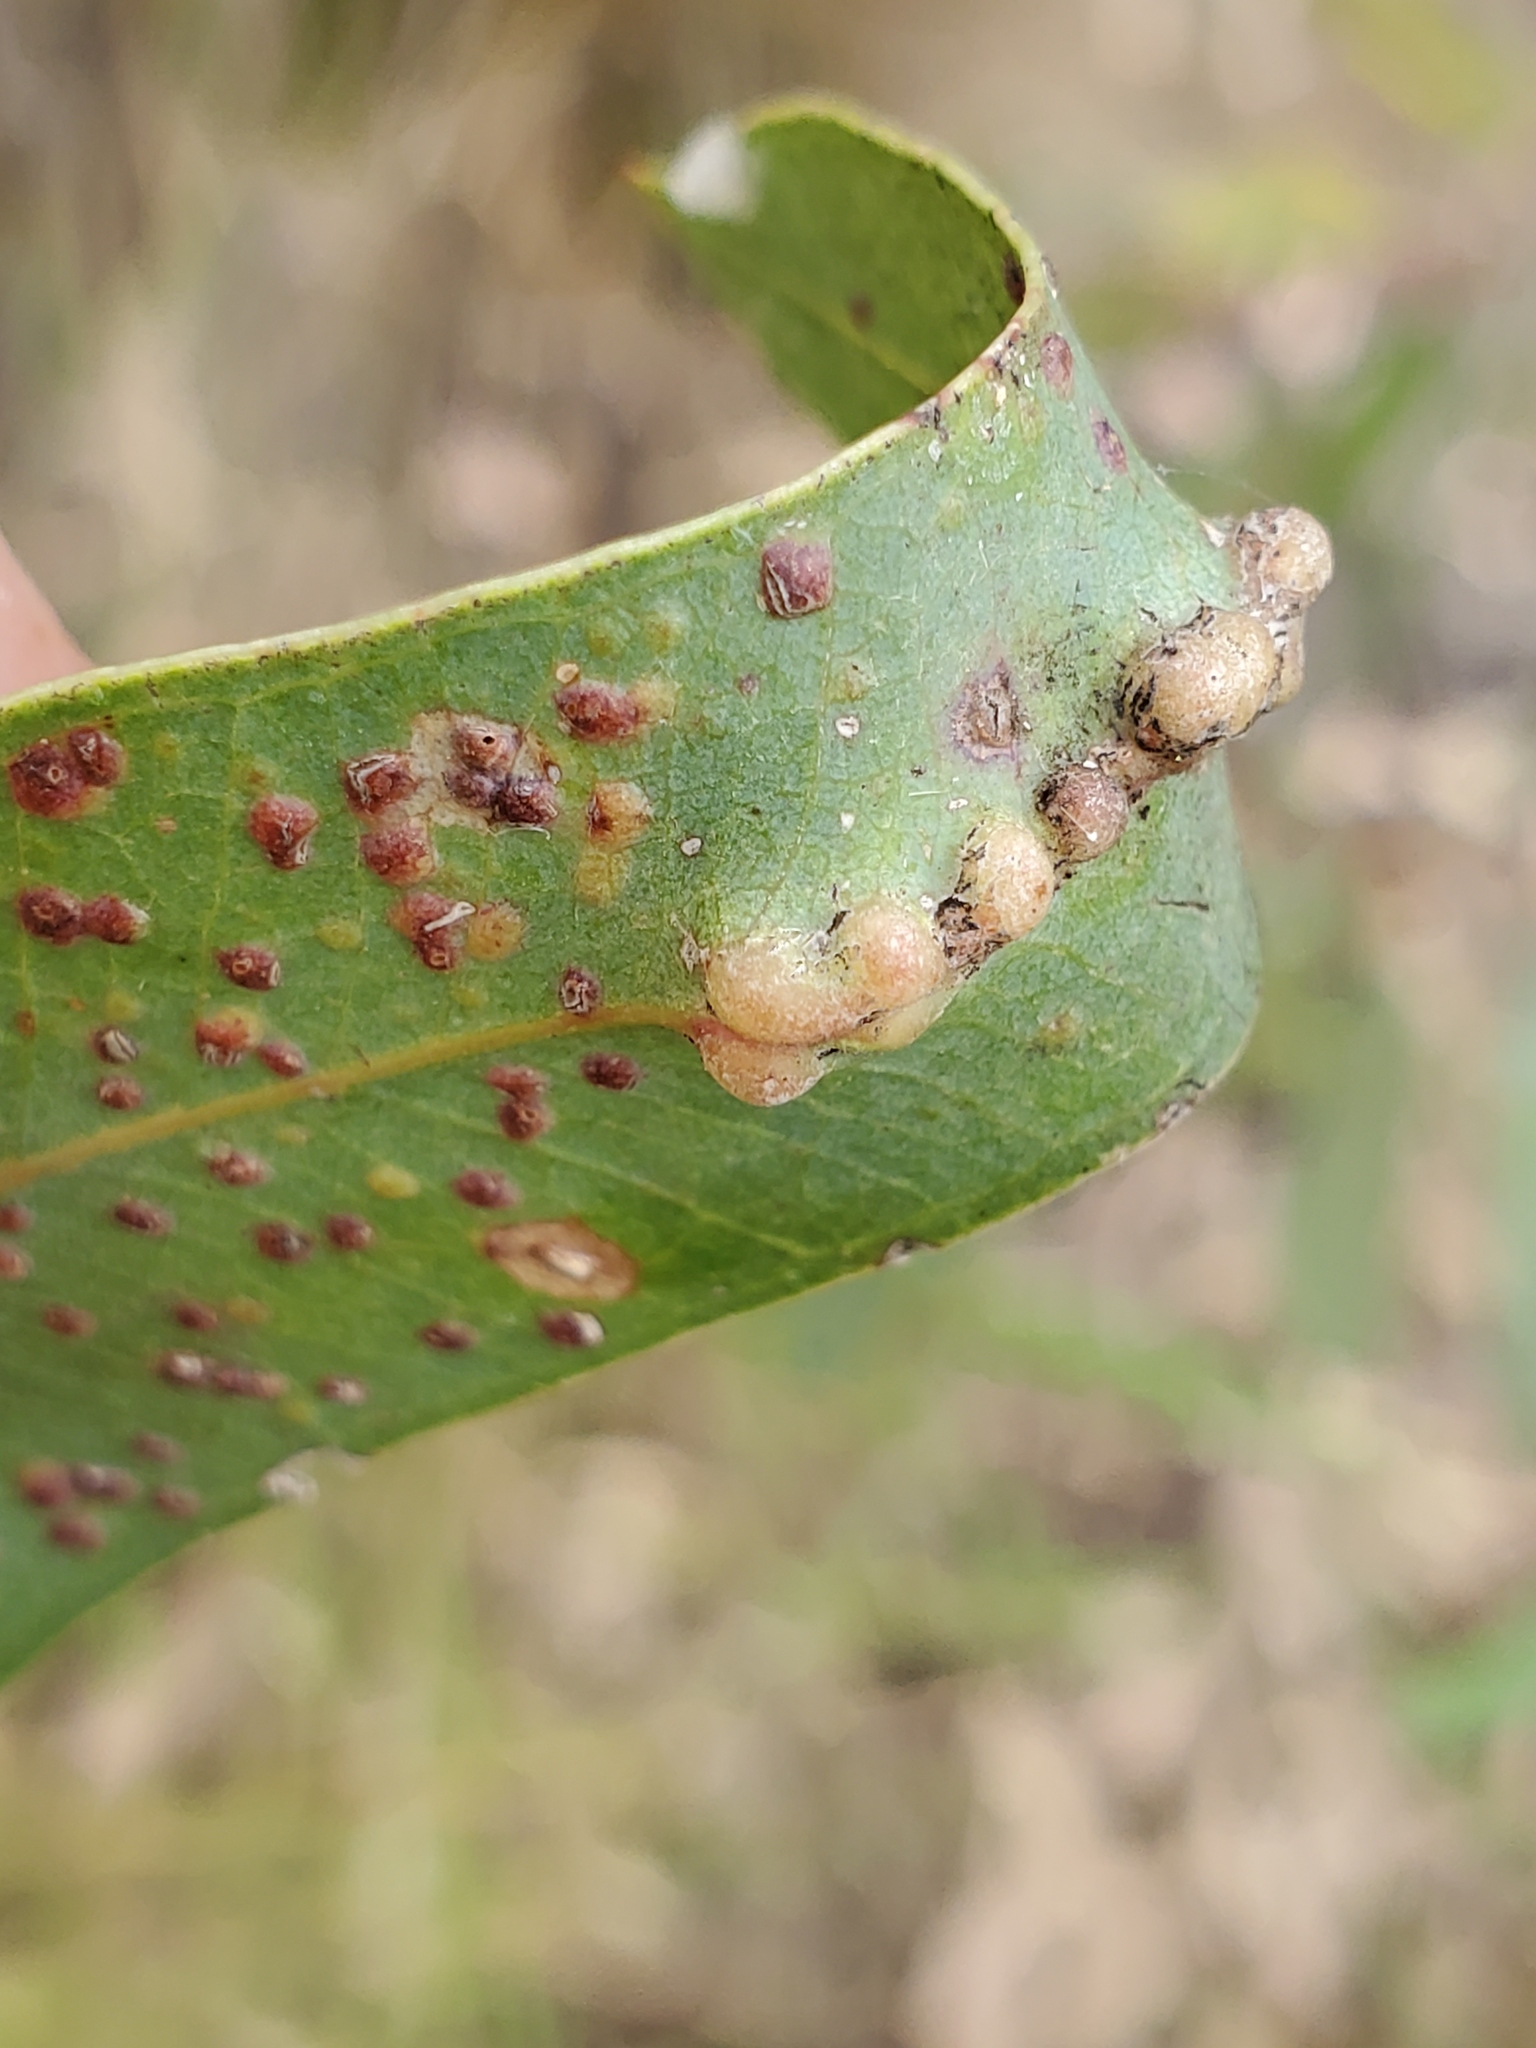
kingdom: Animalia
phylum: Arthropoda
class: Insecta
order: Hymenoptera
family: Eulophidae
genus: Leptocybe
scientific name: Leptocybe invasa
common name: Gall wasp
